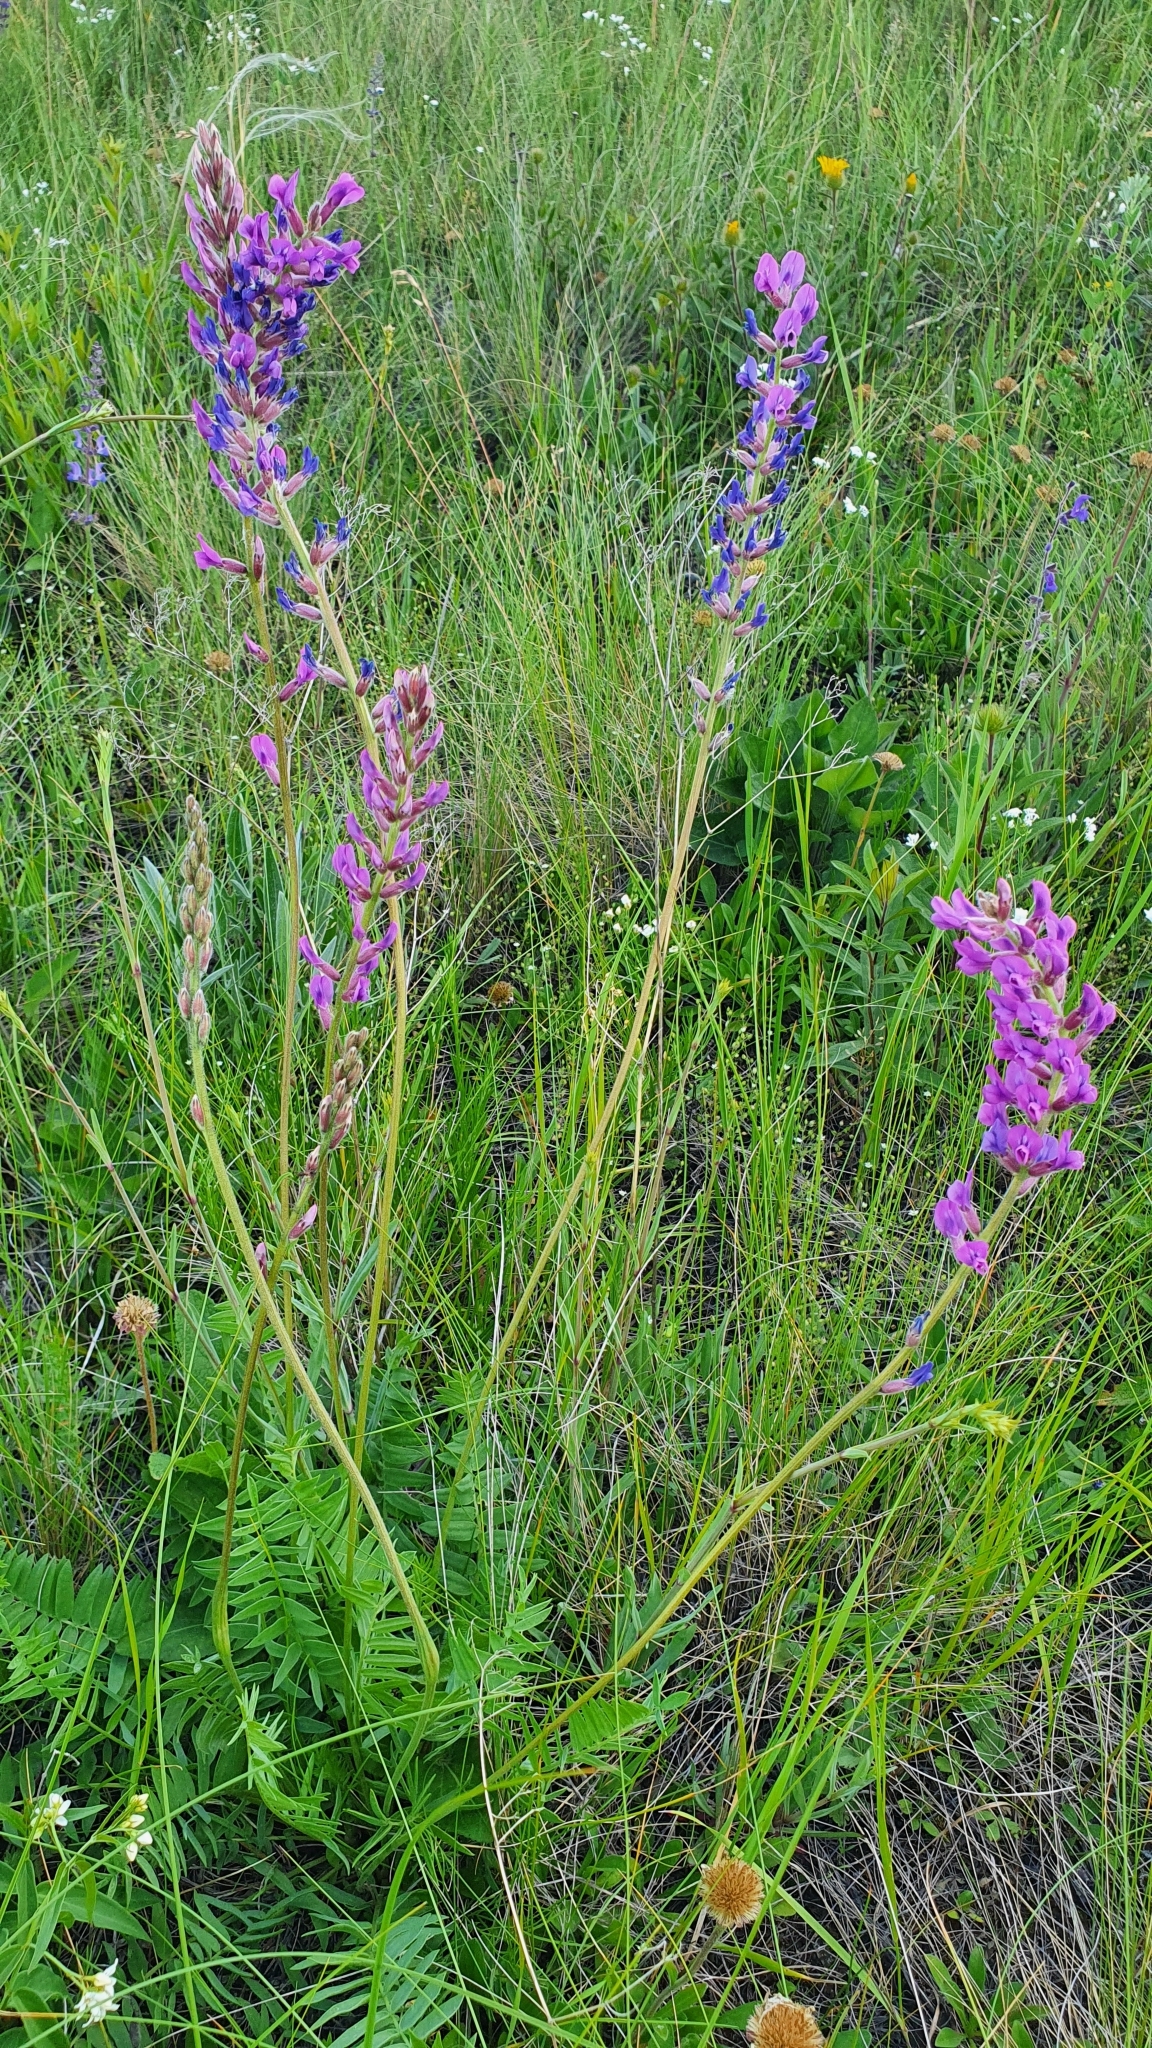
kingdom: Plantae
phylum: Tracheophyta
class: Magnoliopsida
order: Fabales
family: Fabaceae
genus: Oxytropis
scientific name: Oxytropis knjazevii
